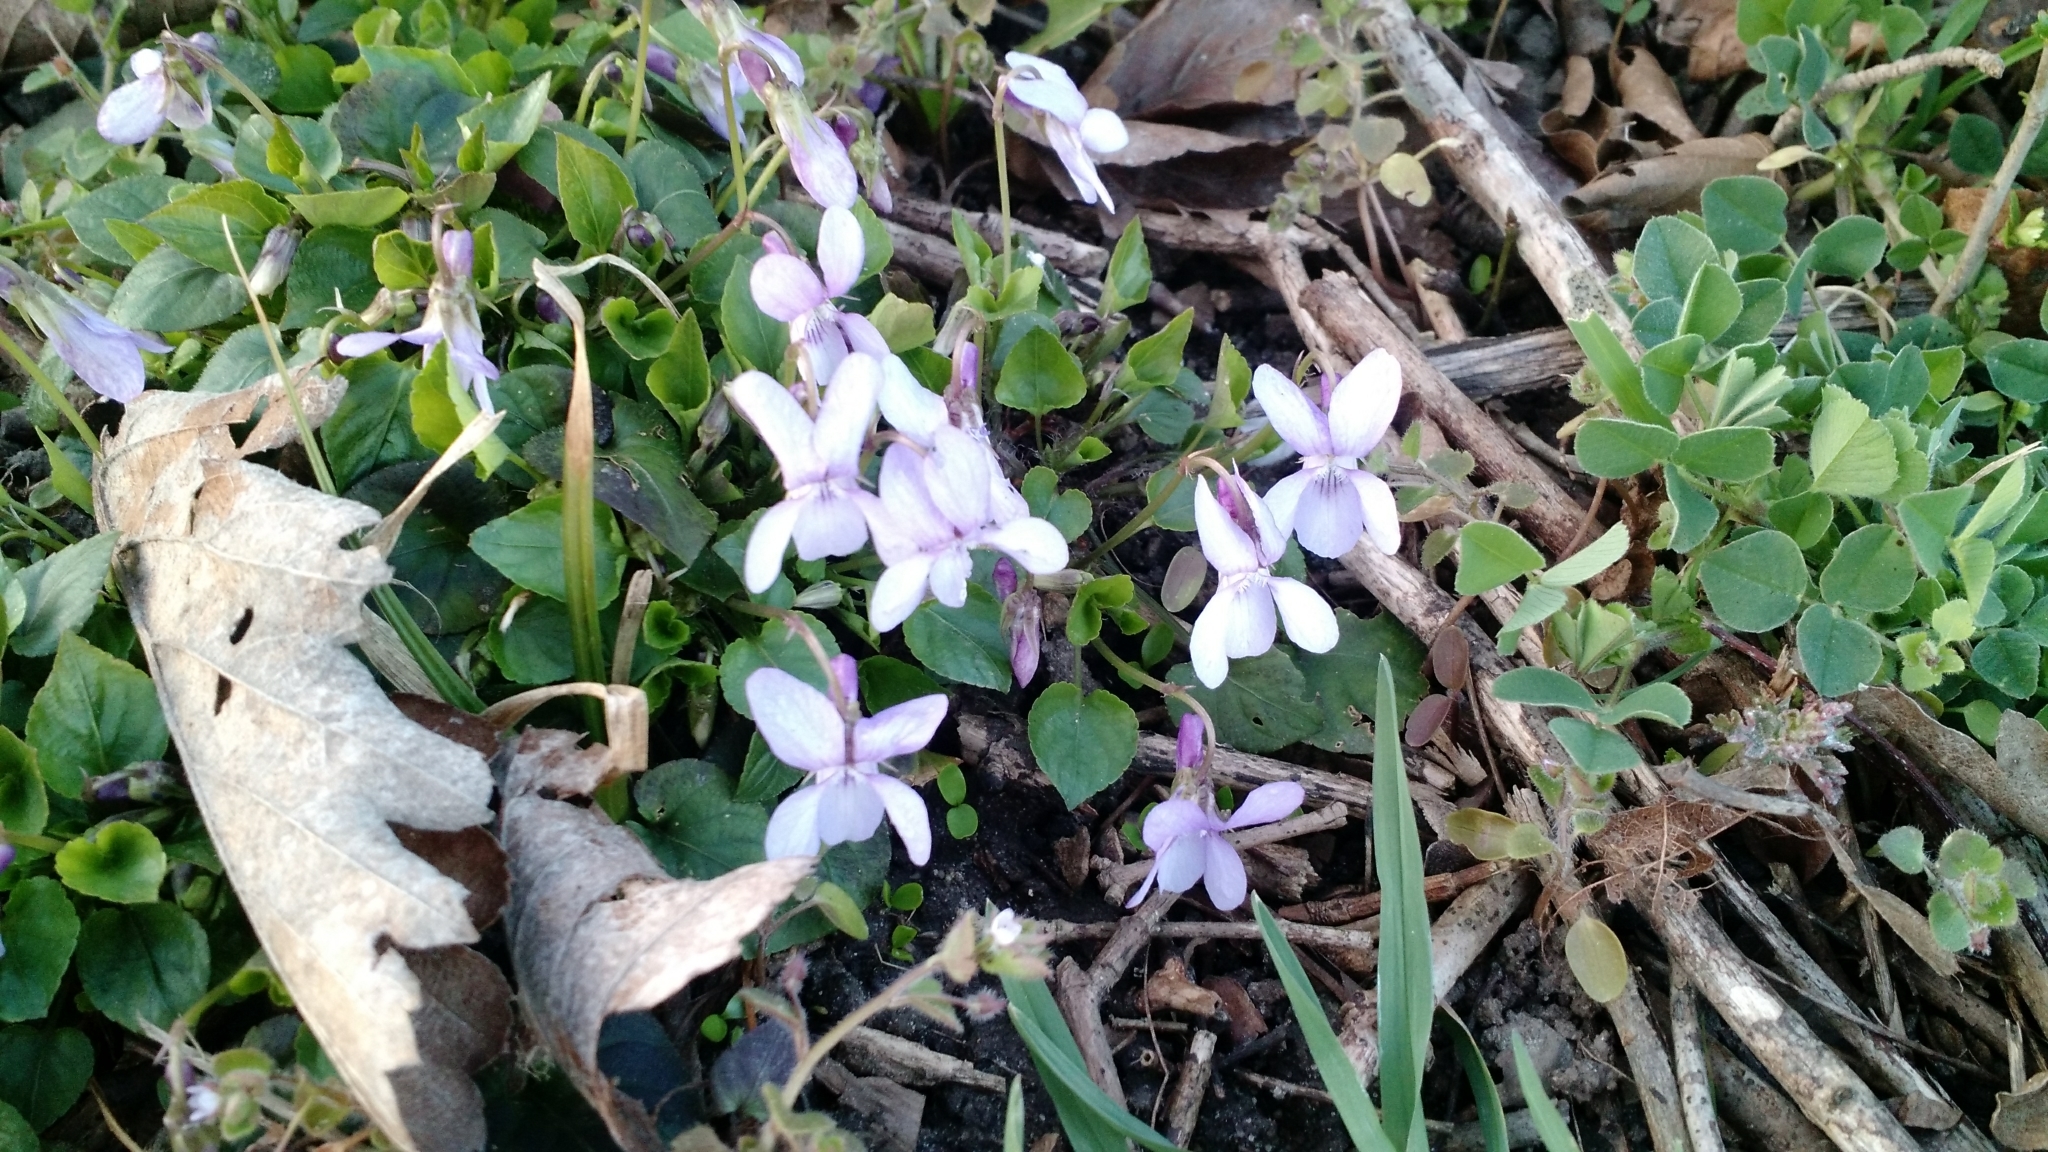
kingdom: Plantae
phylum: Tracheophyta
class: Magnoliopsida
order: Malpighiales
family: Violaceae
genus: Viola
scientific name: Viola odorata
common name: Sweet violet
